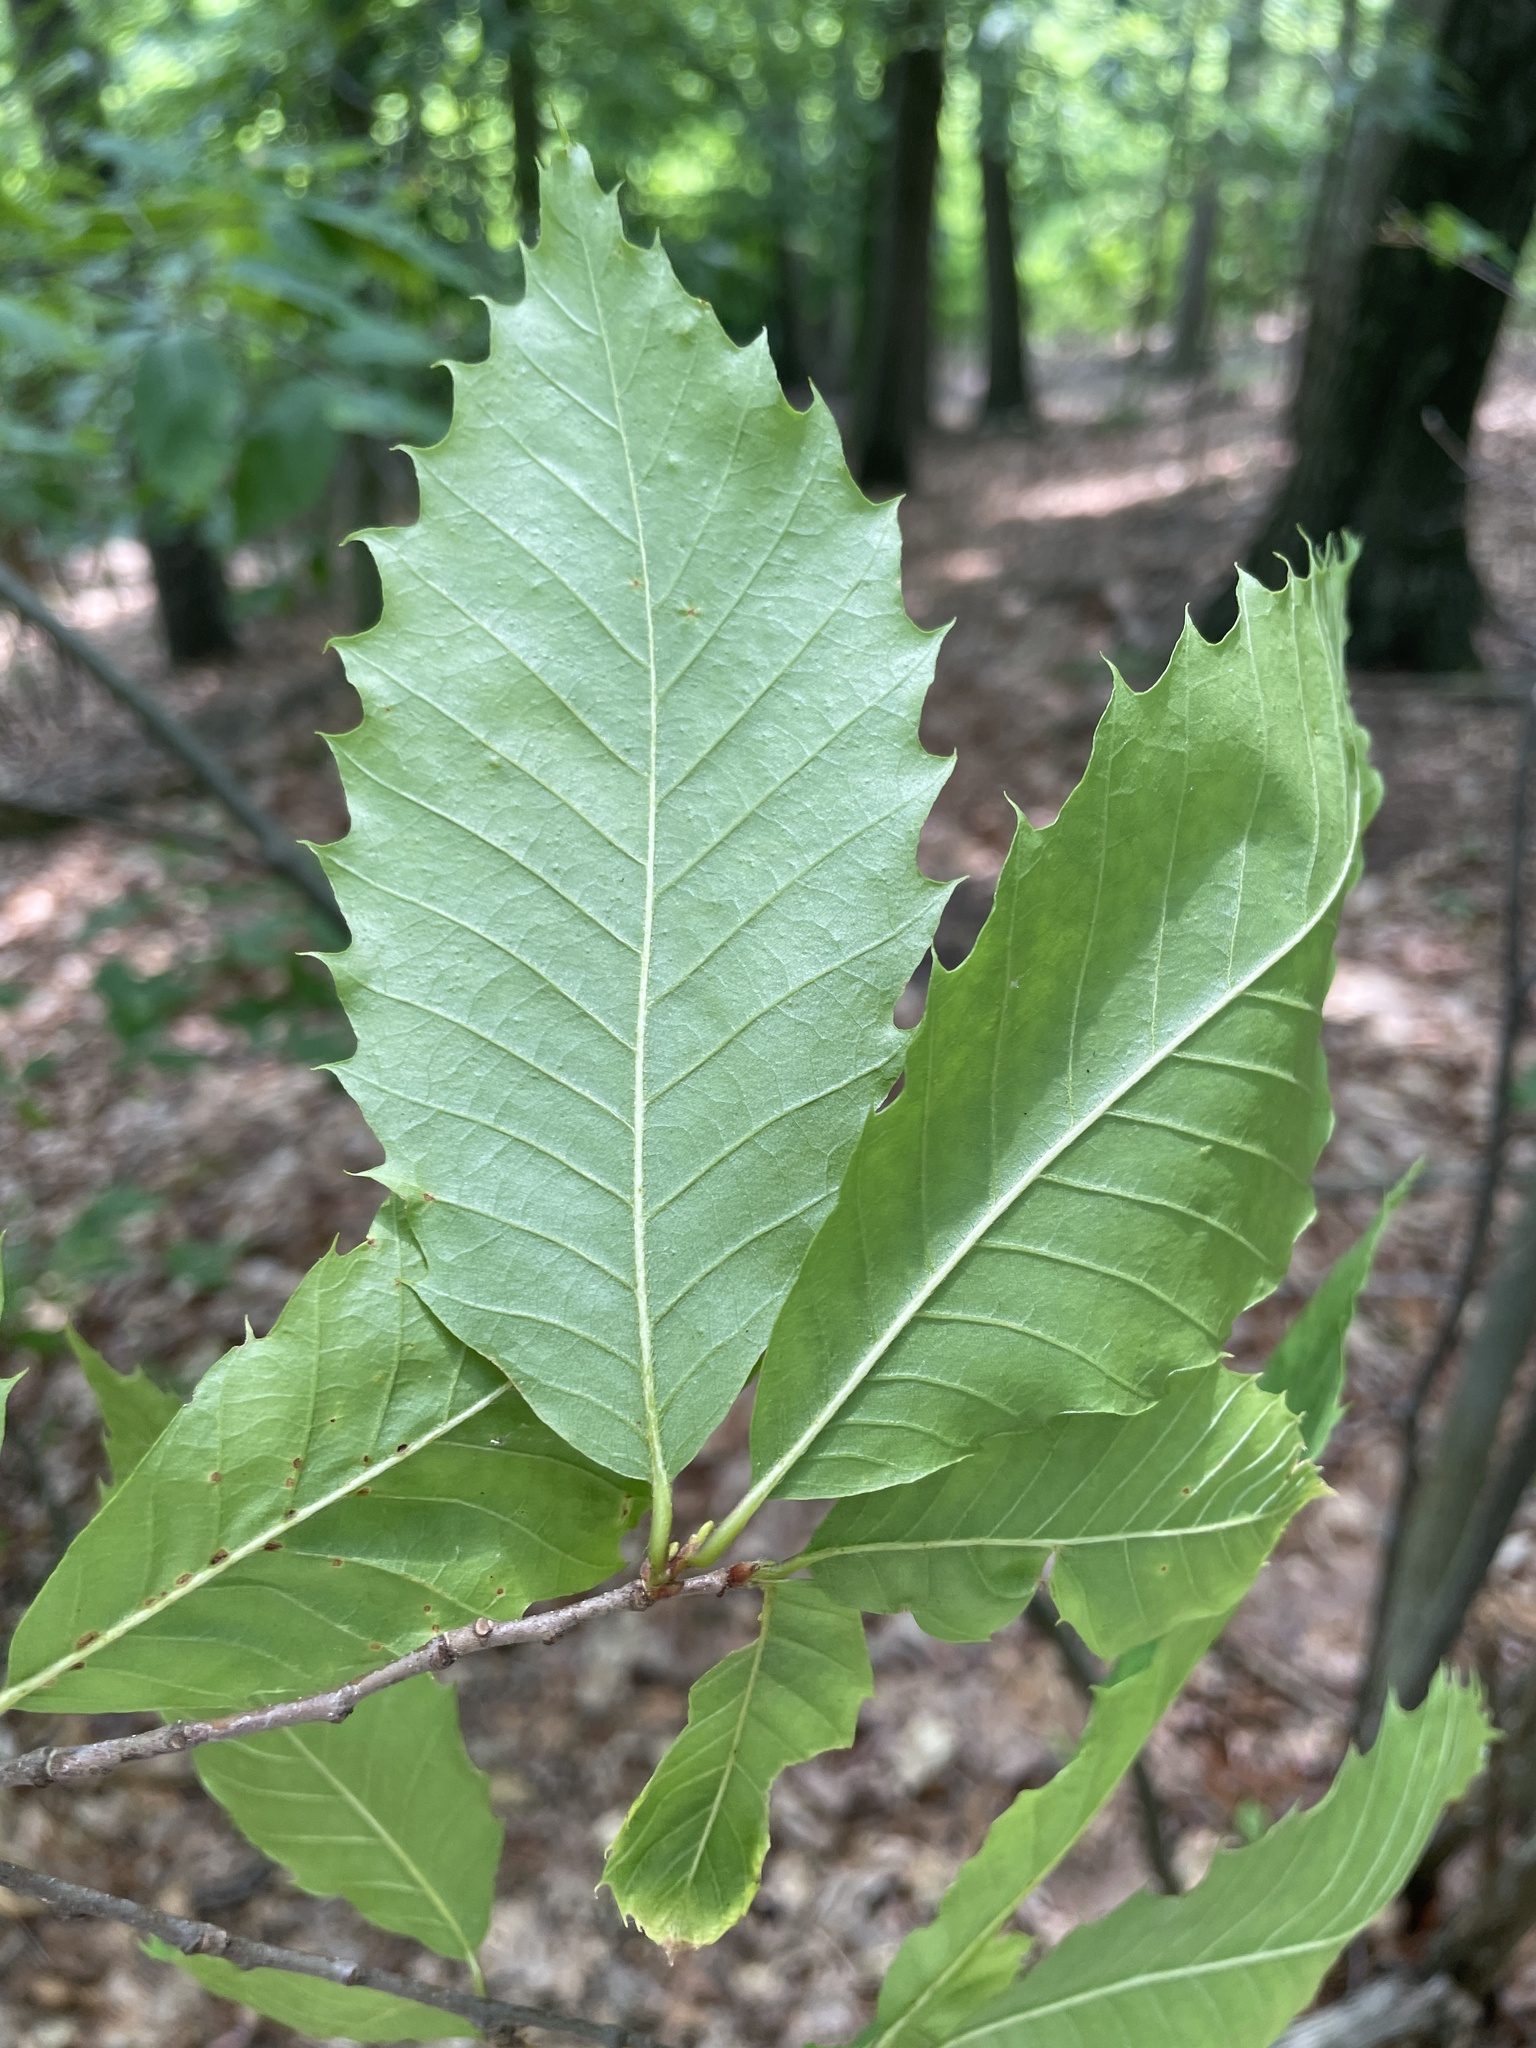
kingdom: Plantae
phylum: Tracheophyta
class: Magnoliopsida
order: Fagales
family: Fagaceae
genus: Castanea
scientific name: Castanea dentata
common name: American chestnut
